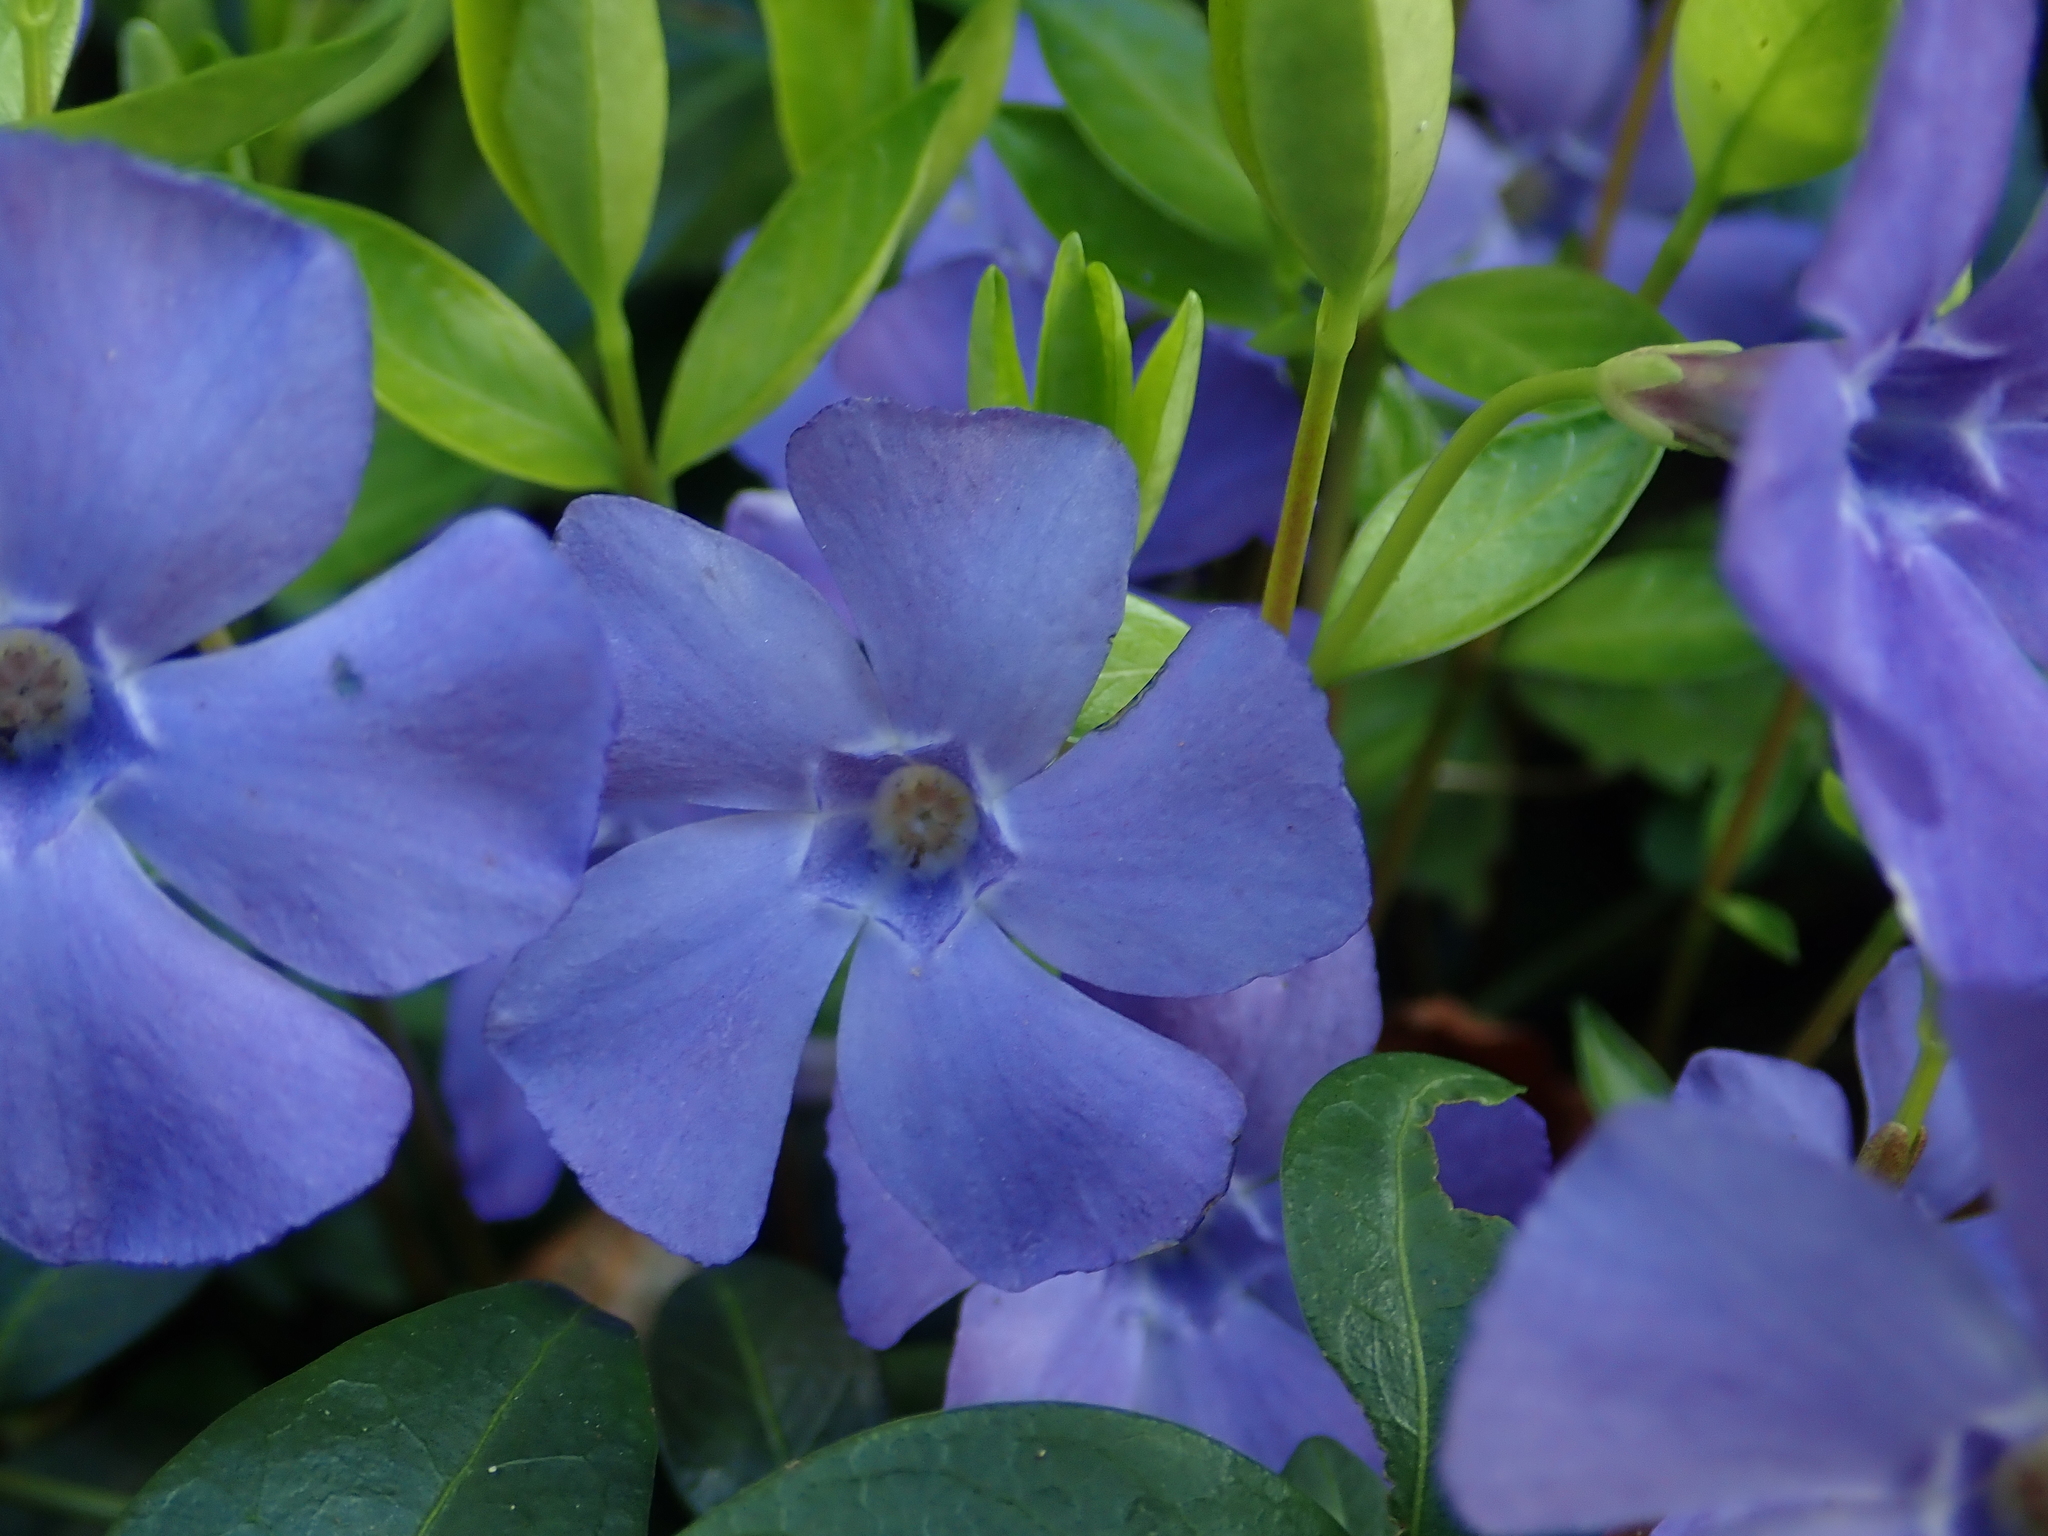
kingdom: Plantae
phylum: Tracheophyta
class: Magnoliopsida
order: Gentianales
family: Apocynaceae
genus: Vinca
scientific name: Vinca minor
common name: Lesser periwinkle
